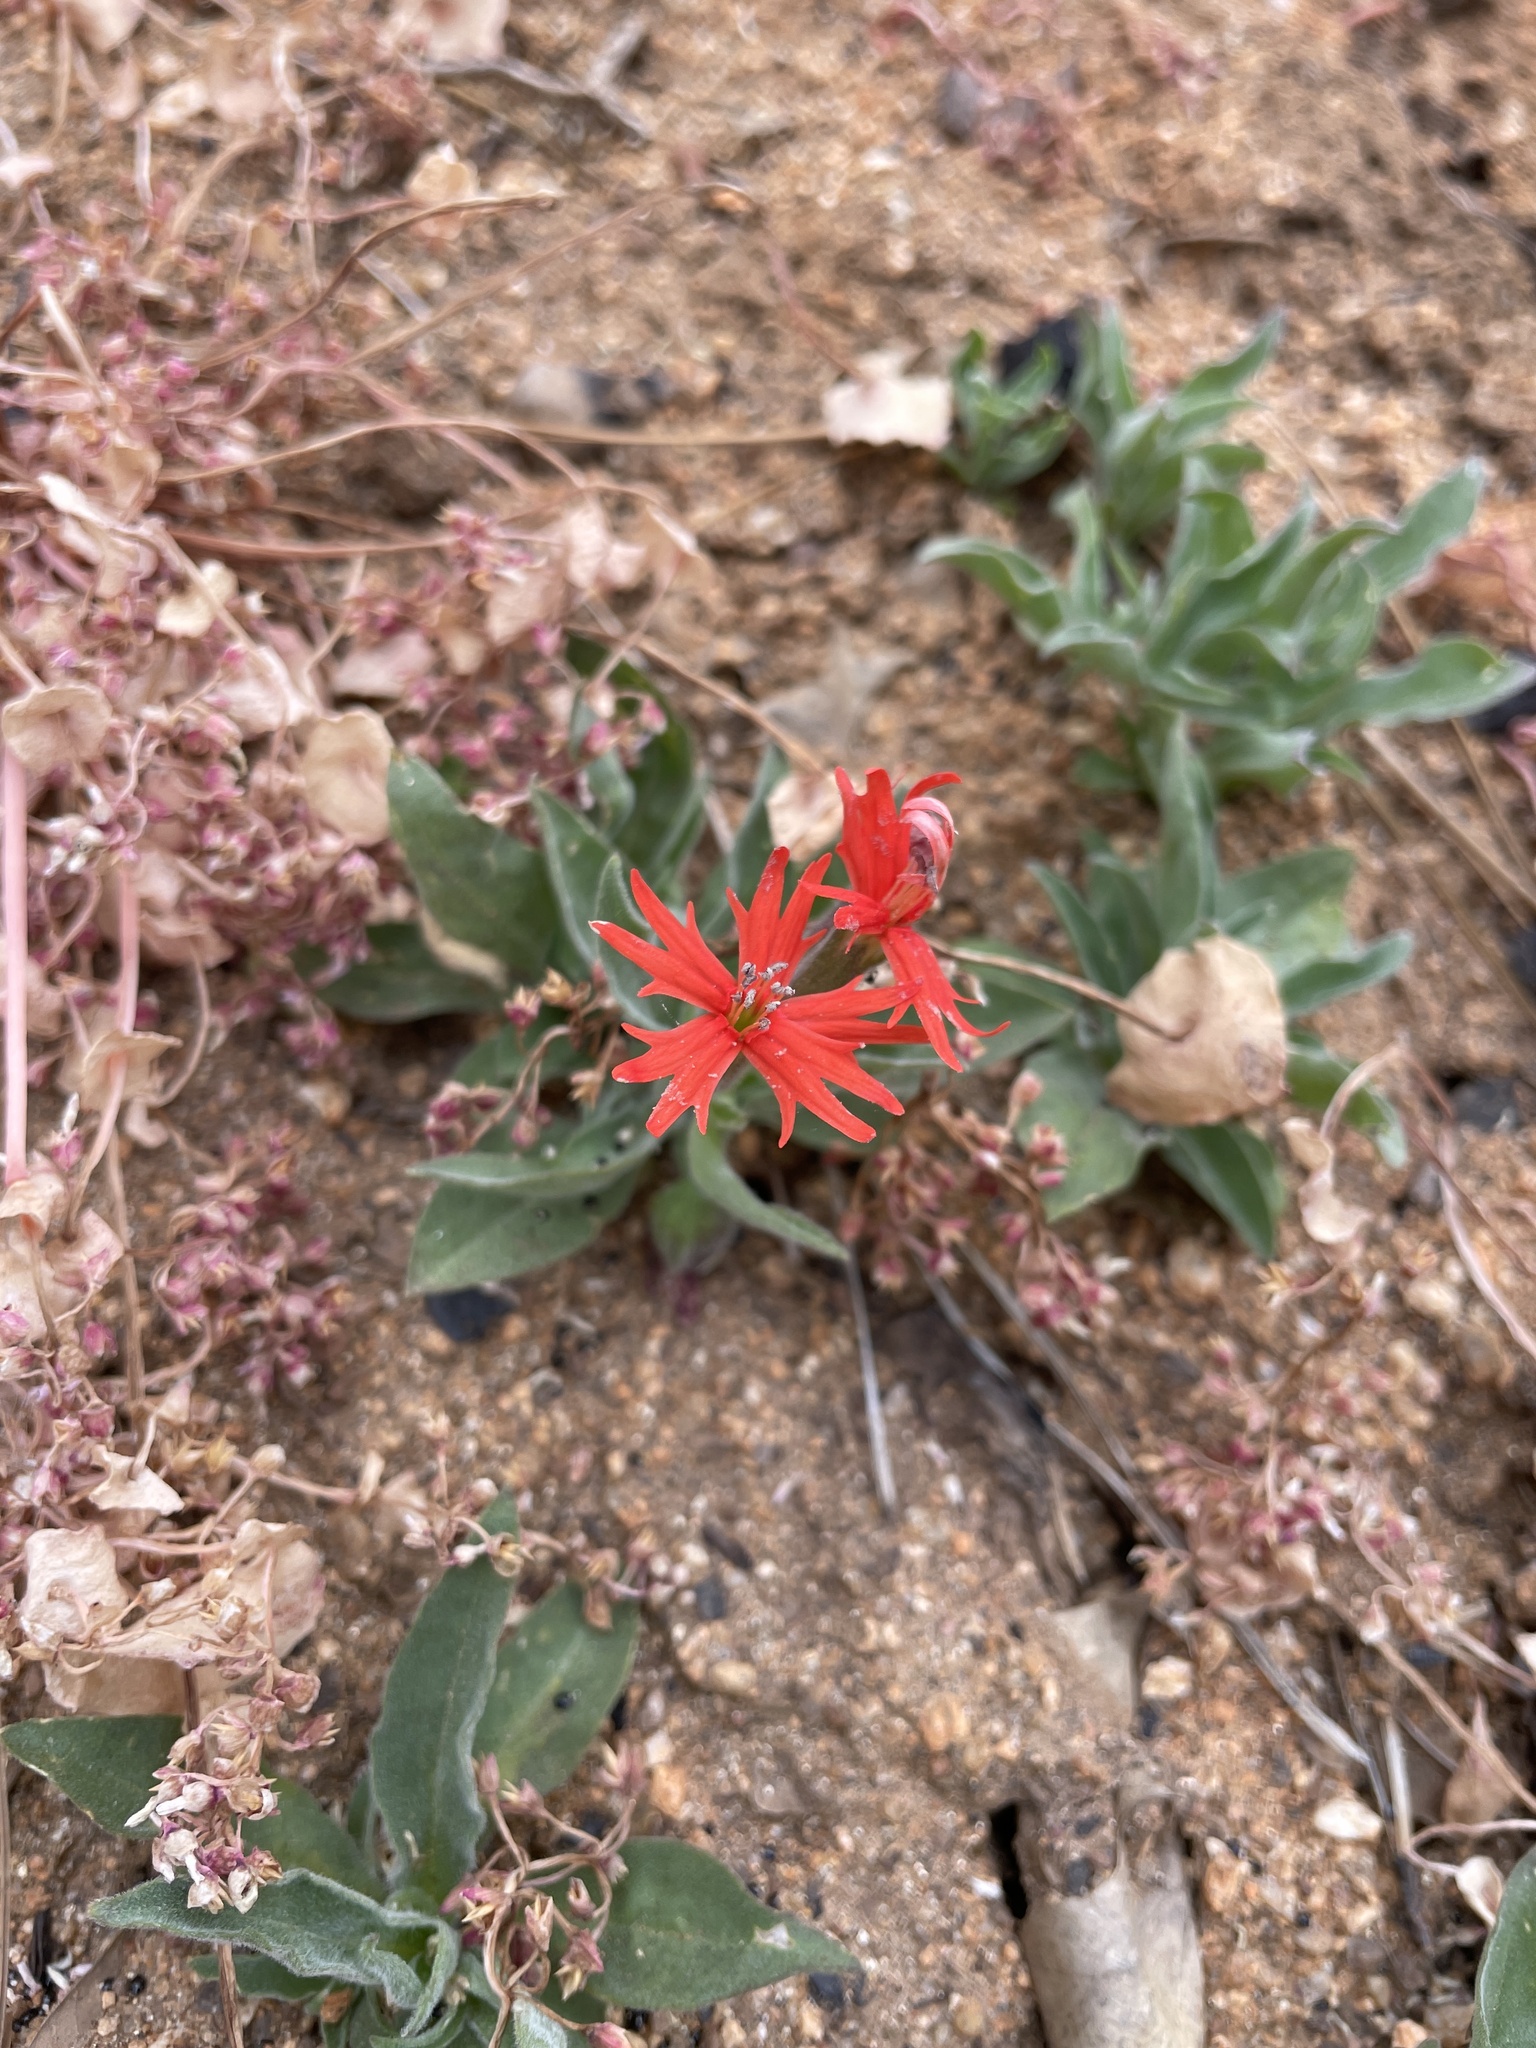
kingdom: Plantae
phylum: Tracheophyta
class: Magnoliopsida
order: Caryophyllales
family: Caryophyllaceae
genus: Silene
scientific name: Silene laciniata
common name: Indian-pink
